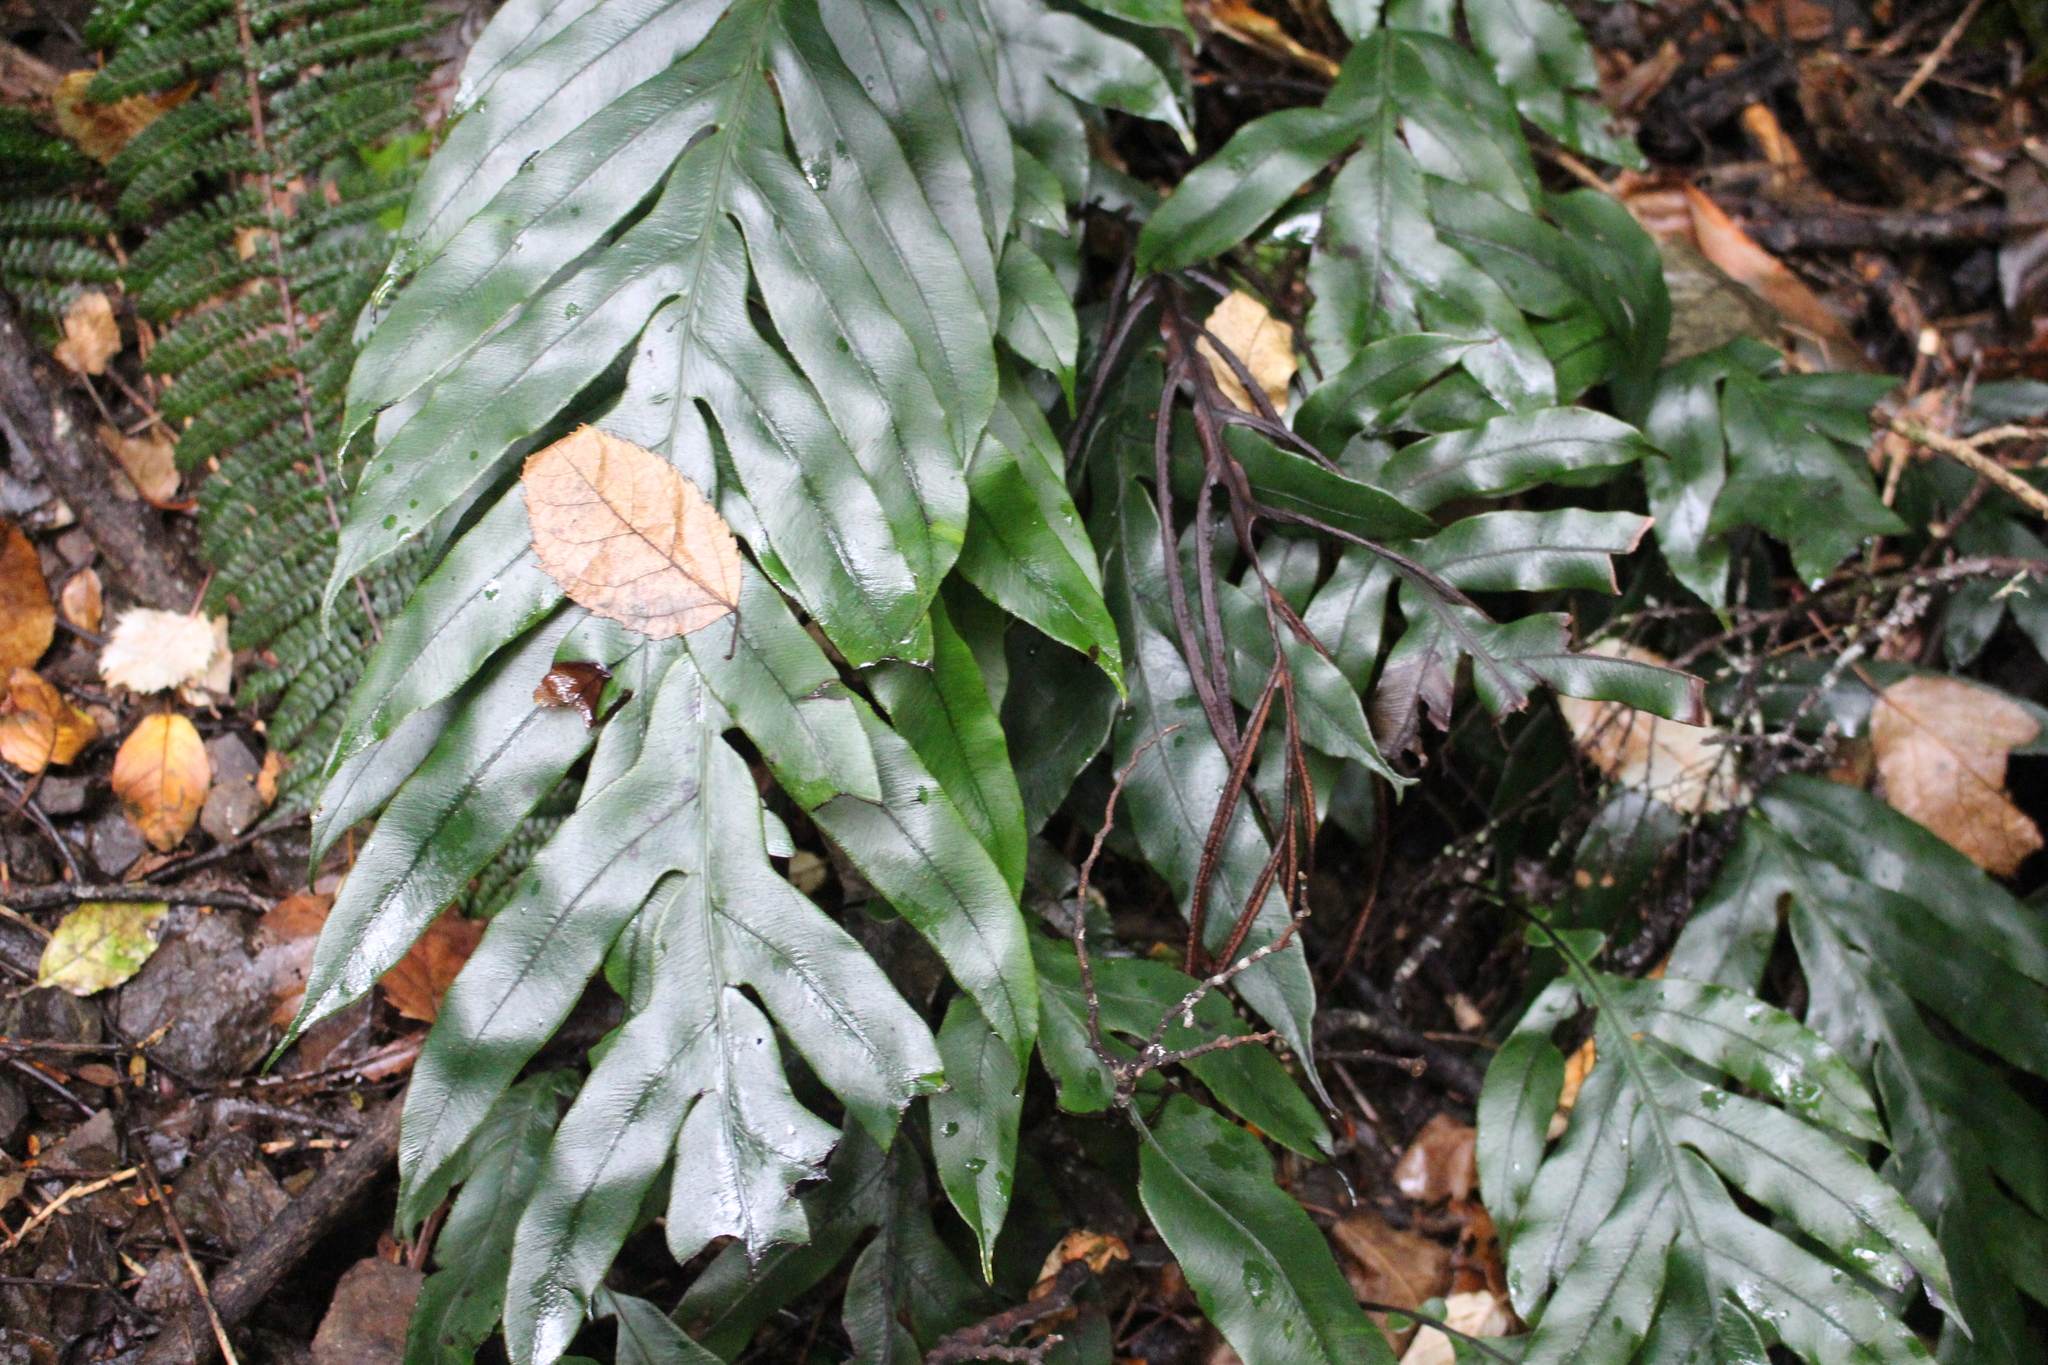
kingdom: Plantae
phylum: Tracheophyta
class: Polypodiopsida
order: Polypodiales
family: Blechnaceae
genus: Austroblechnum
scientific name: Austroblechnum colensoi
